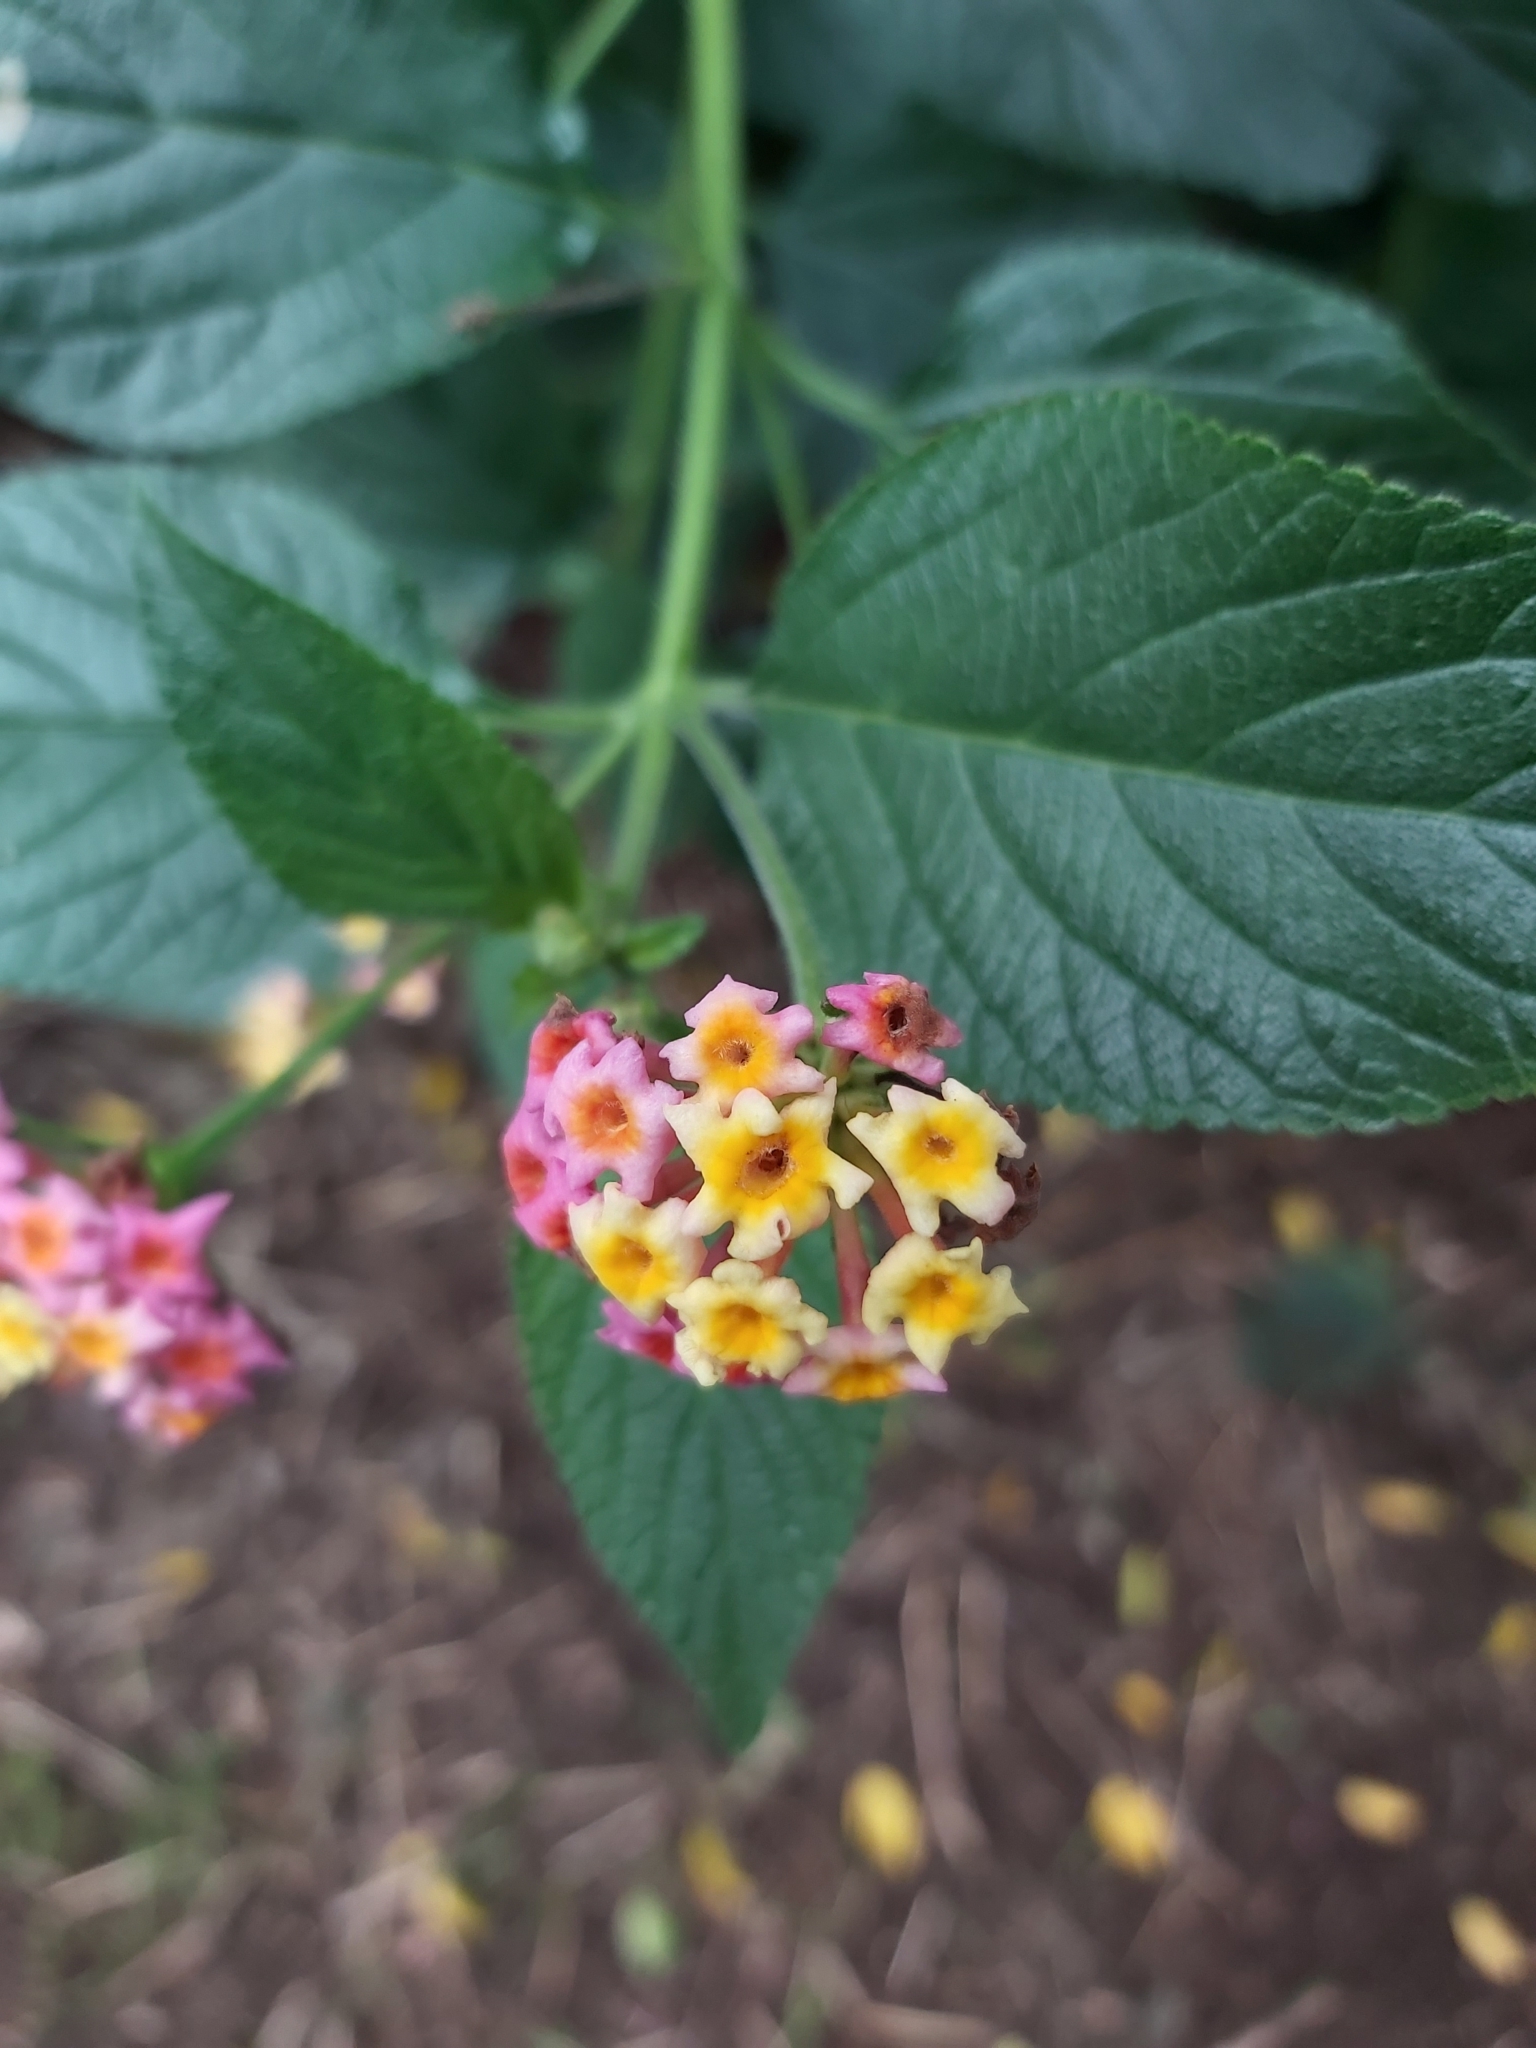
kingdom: Plantae
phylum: Tracheophyta
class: Magnoliopsida
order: Lamiales
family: Verbenaceae
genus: Lantana
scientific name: Lantana camara
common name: Lantana
